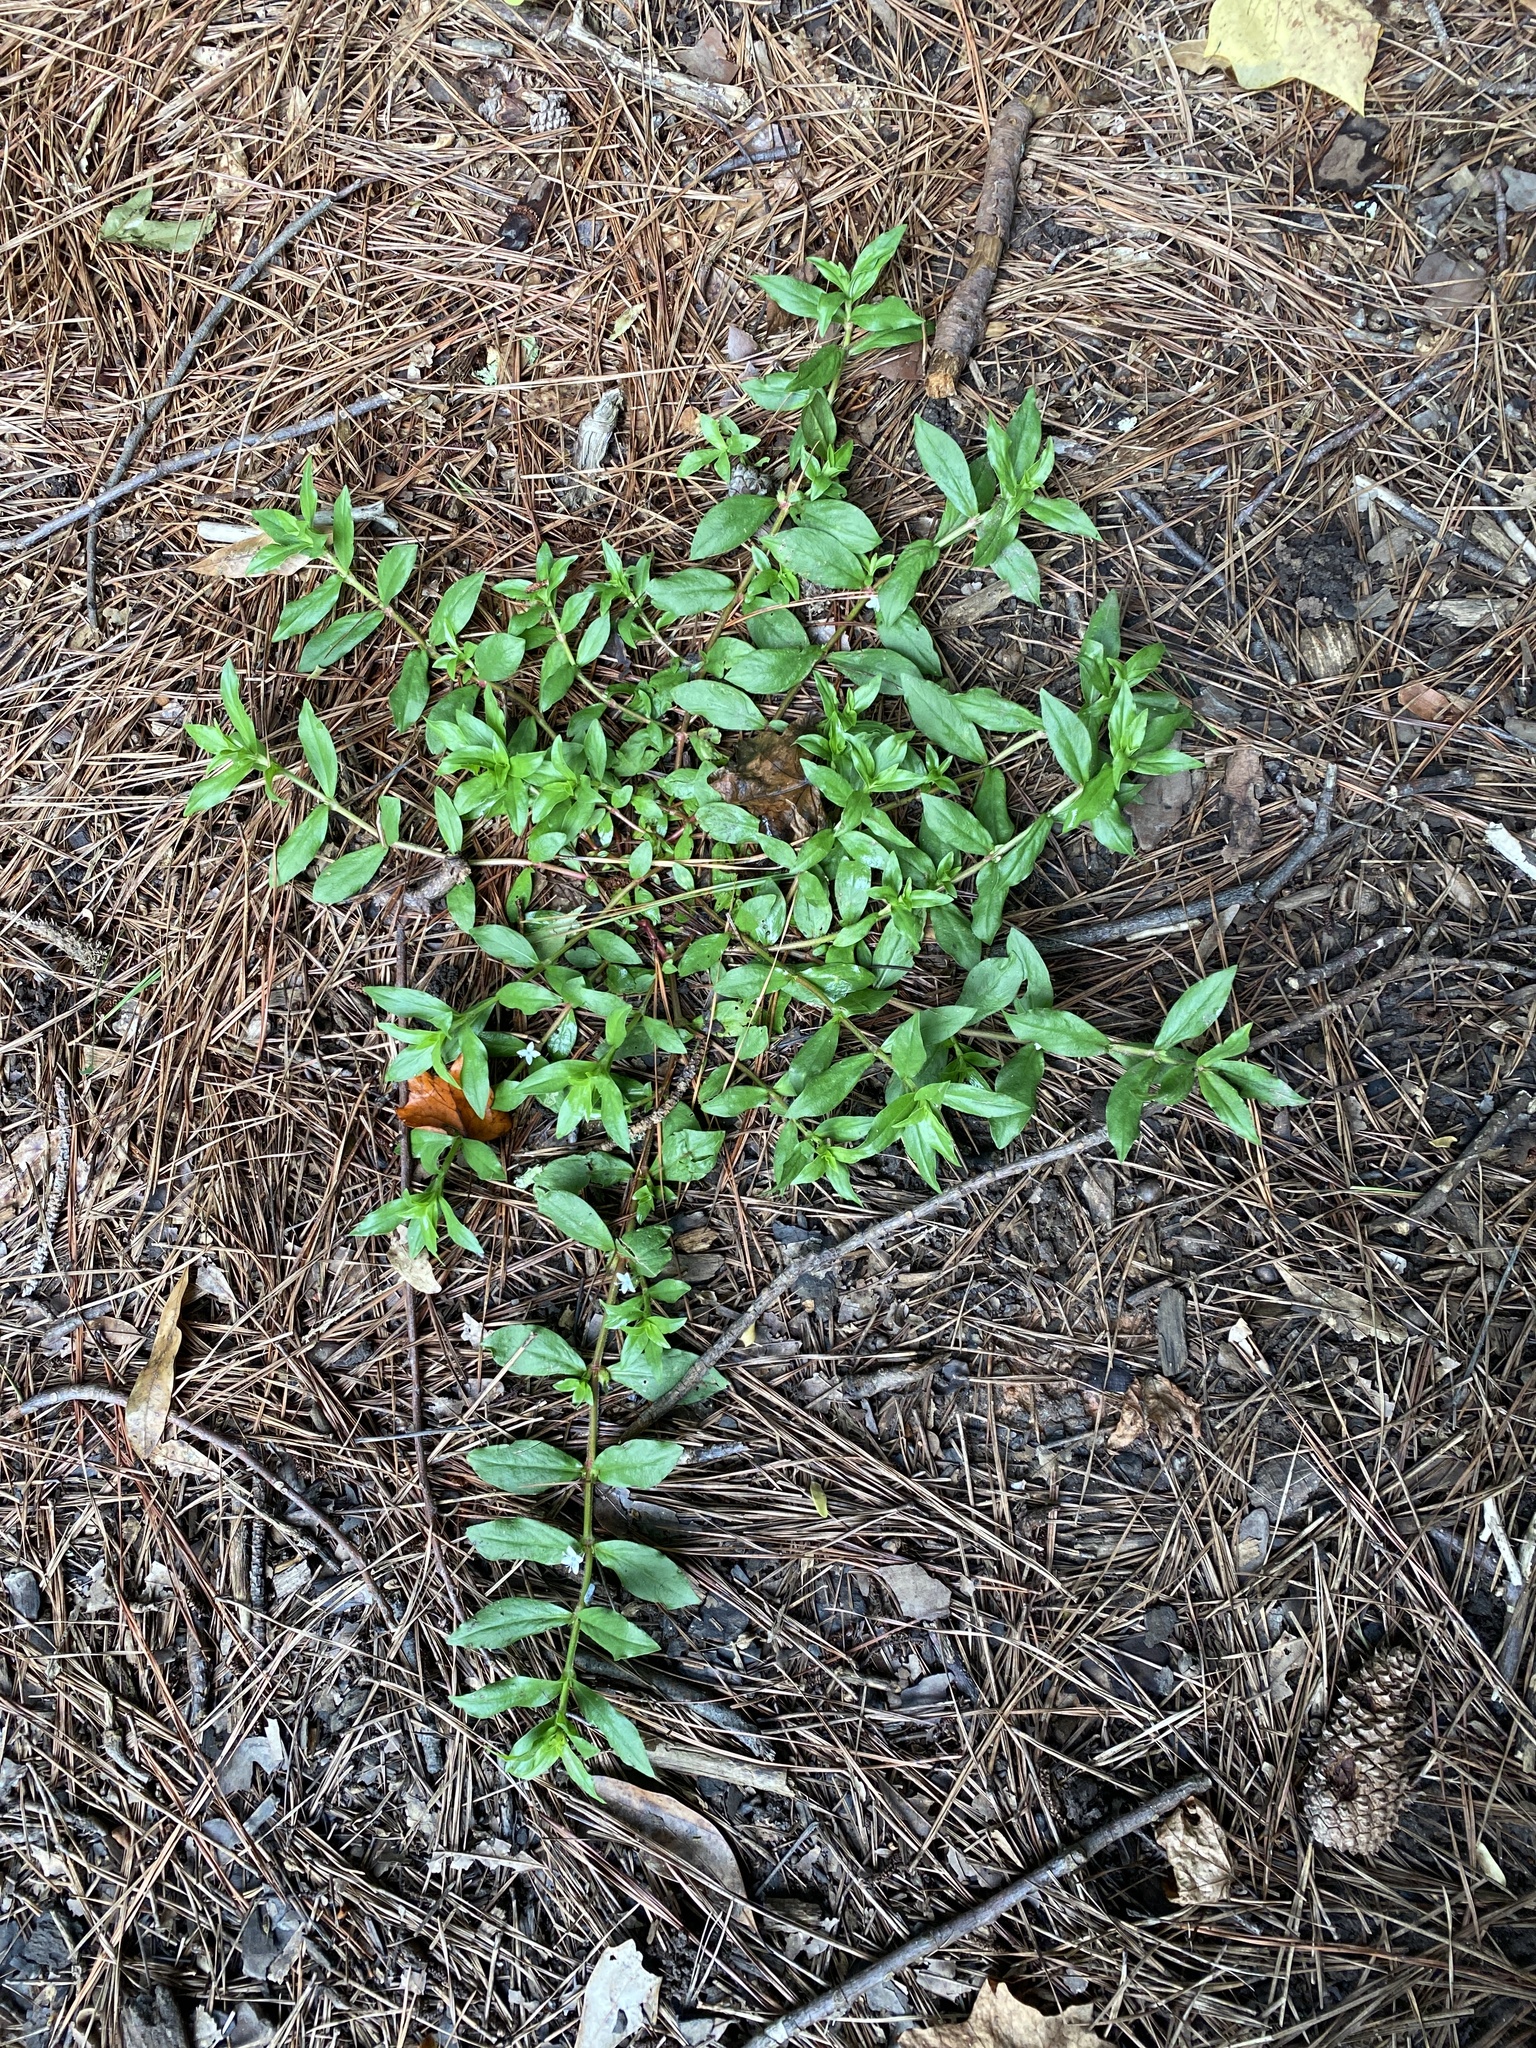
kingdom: Plantae
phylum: Tracheophyta
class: Magnoliopsida
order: Gentianales
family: Rubiaceae
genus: Diodia
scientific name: Diodia virginiana
